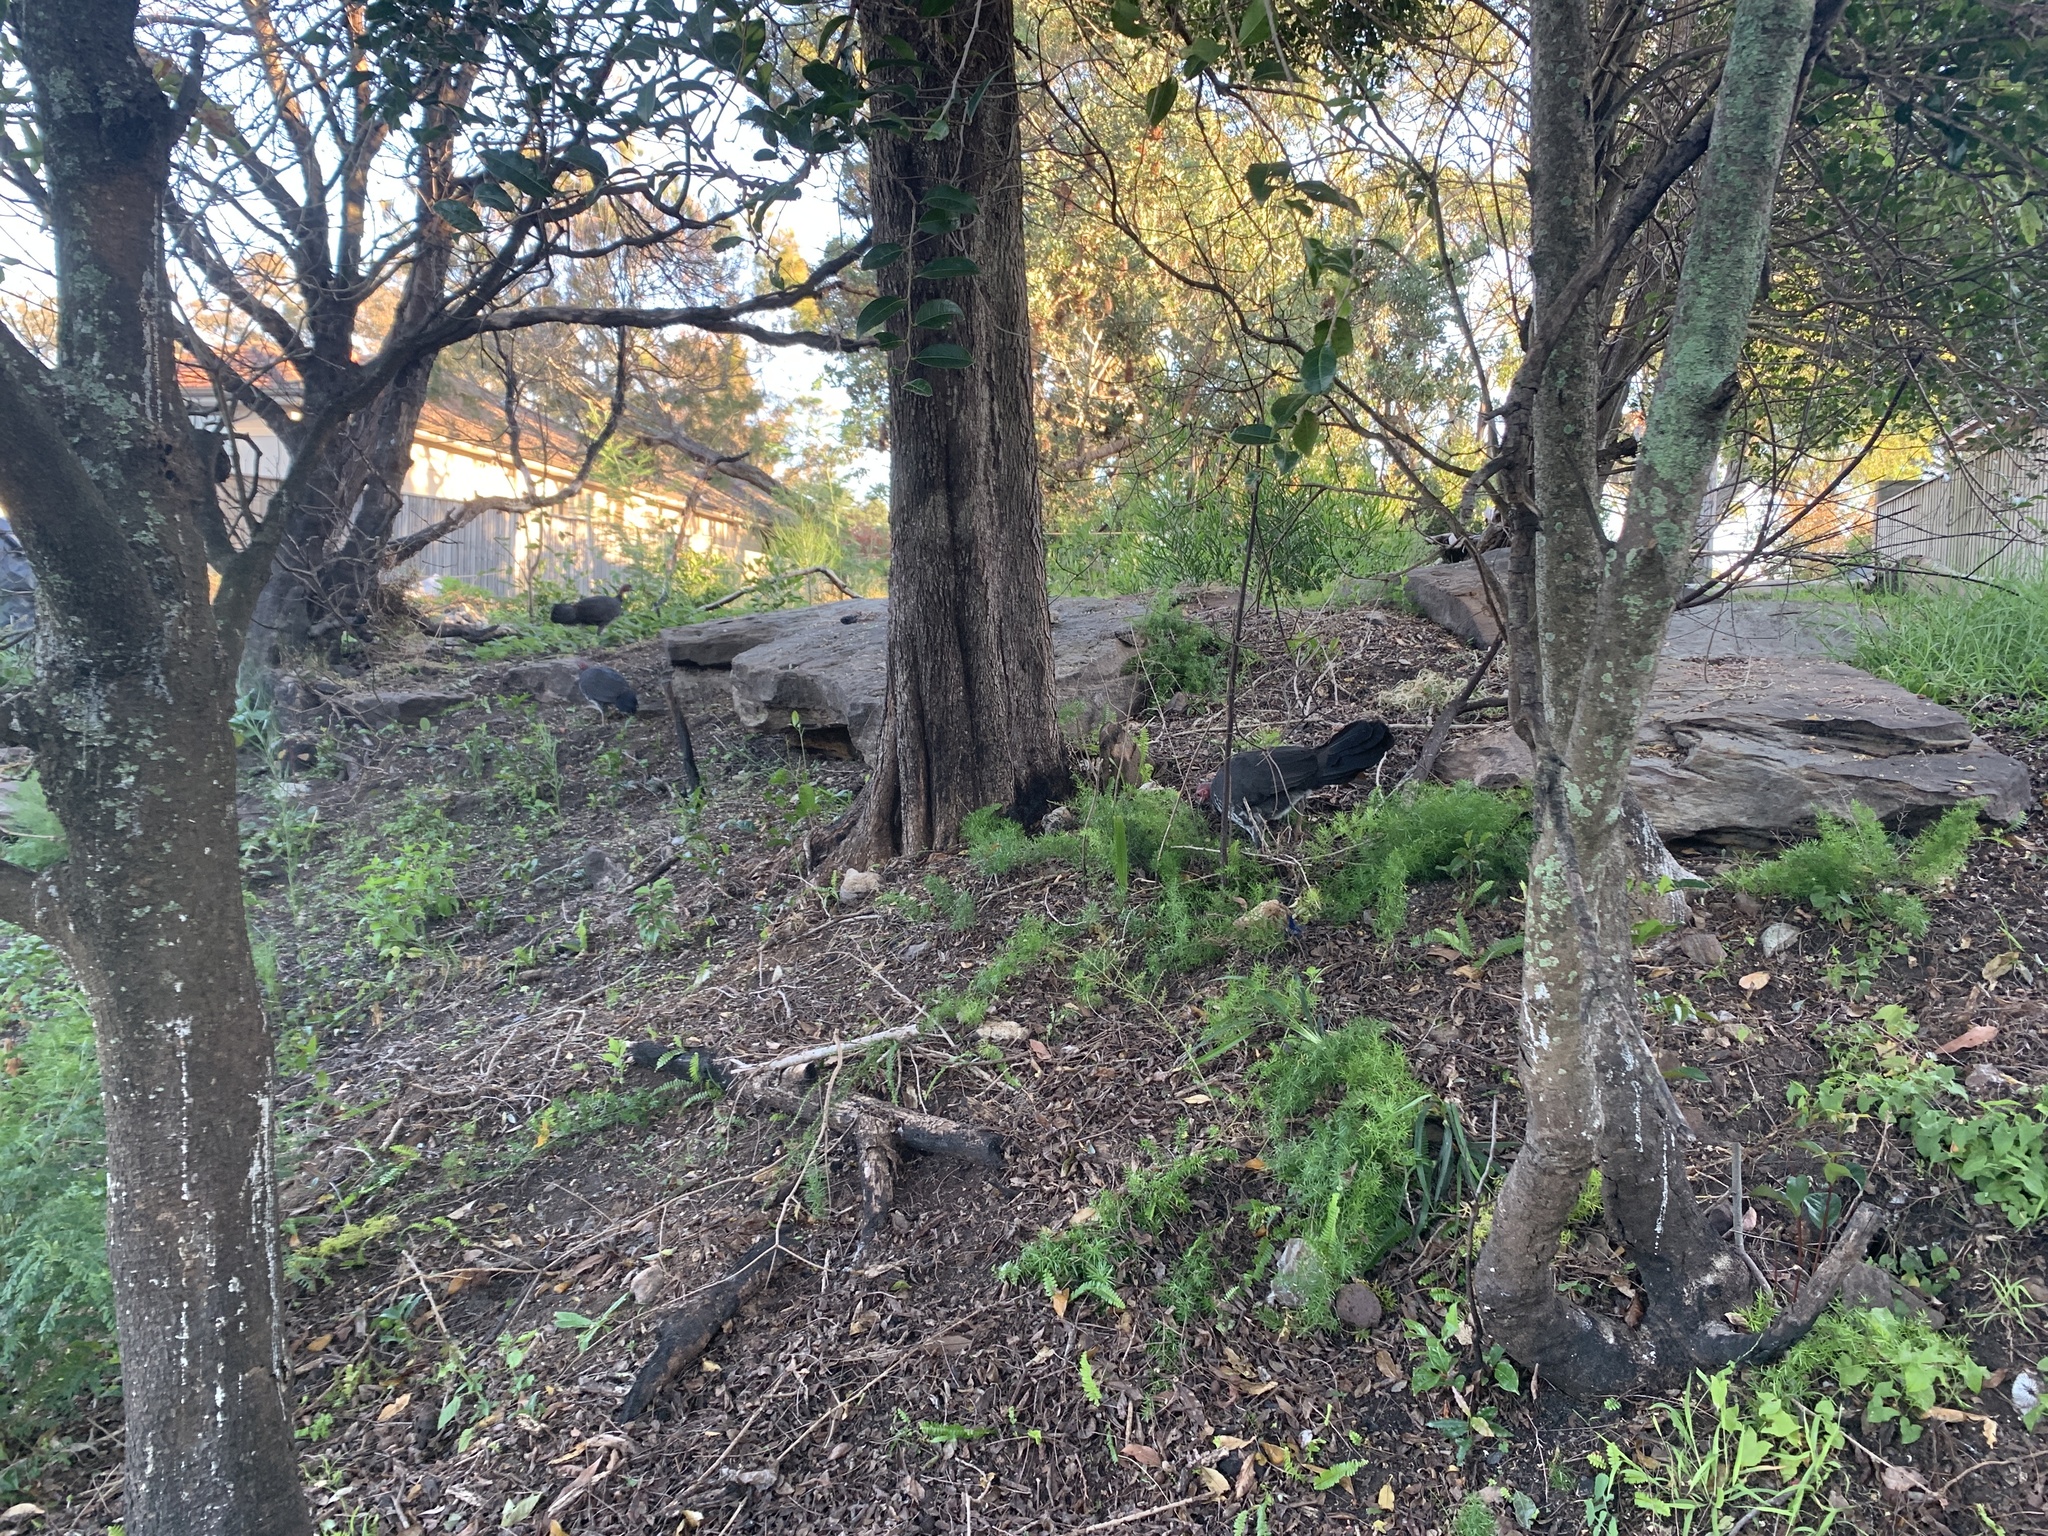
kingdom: Animalia
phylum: Chordata
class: Aves
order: Galliformes
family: Megapodiidae
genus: Alectura
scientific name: Alectura lathami
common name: Australian brushturkey
